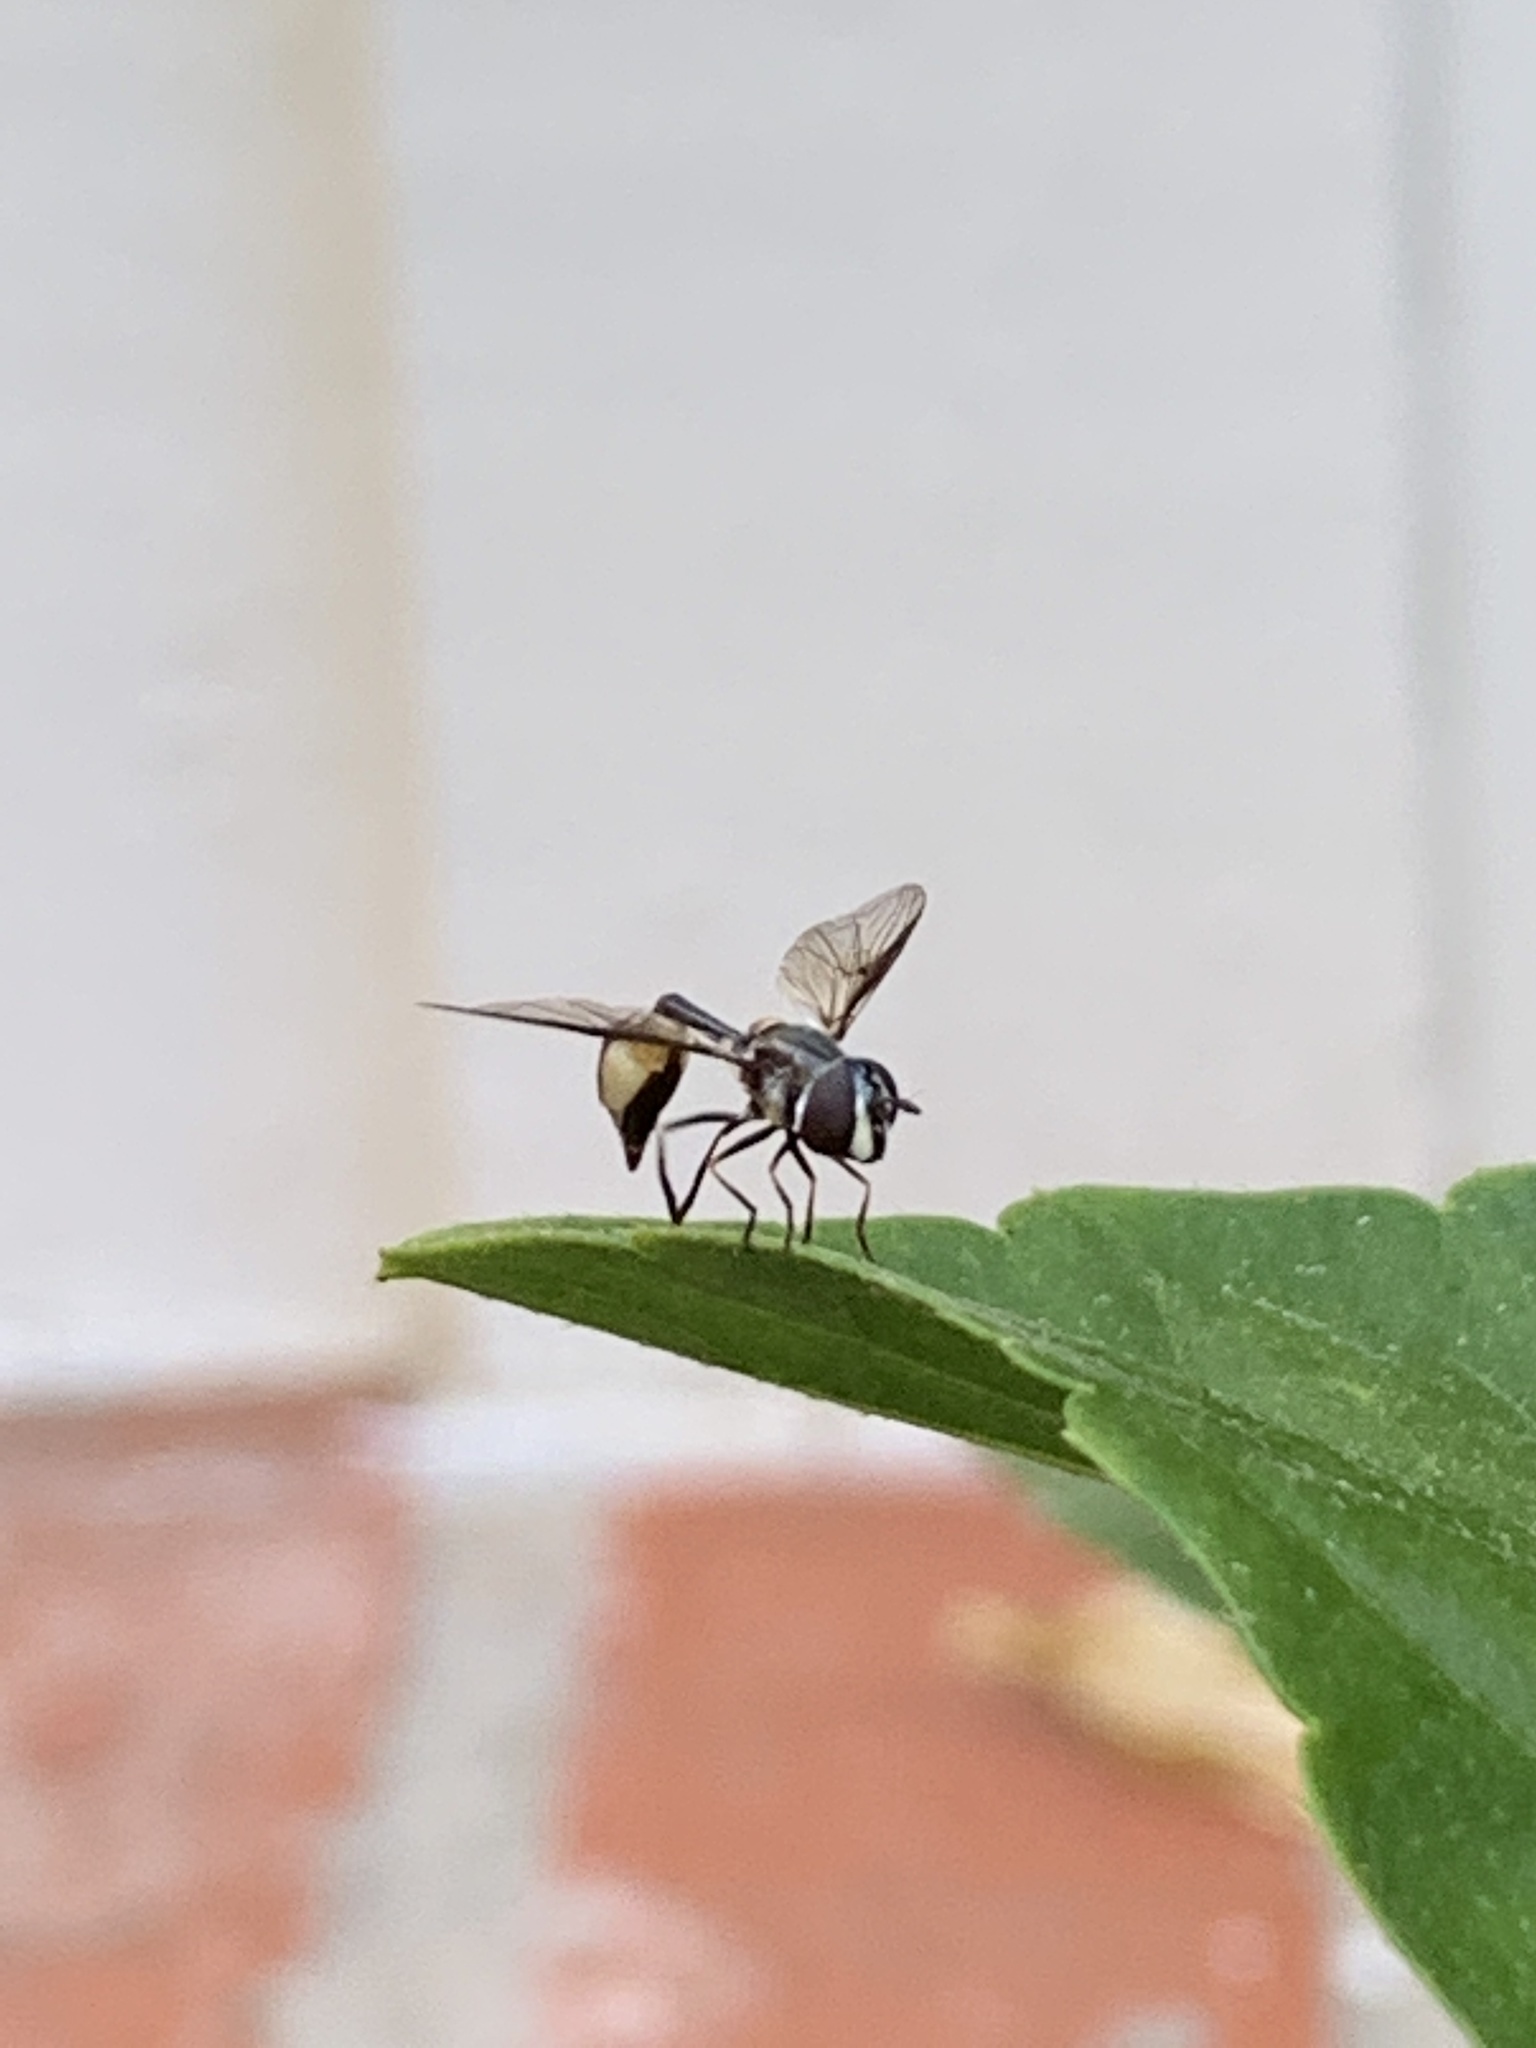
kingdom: Animalia
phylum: Arthropoda
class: Insecta
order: Diptera
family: Syrphidae
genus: Dioprosopa
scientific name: Dioprosopa clavatus
